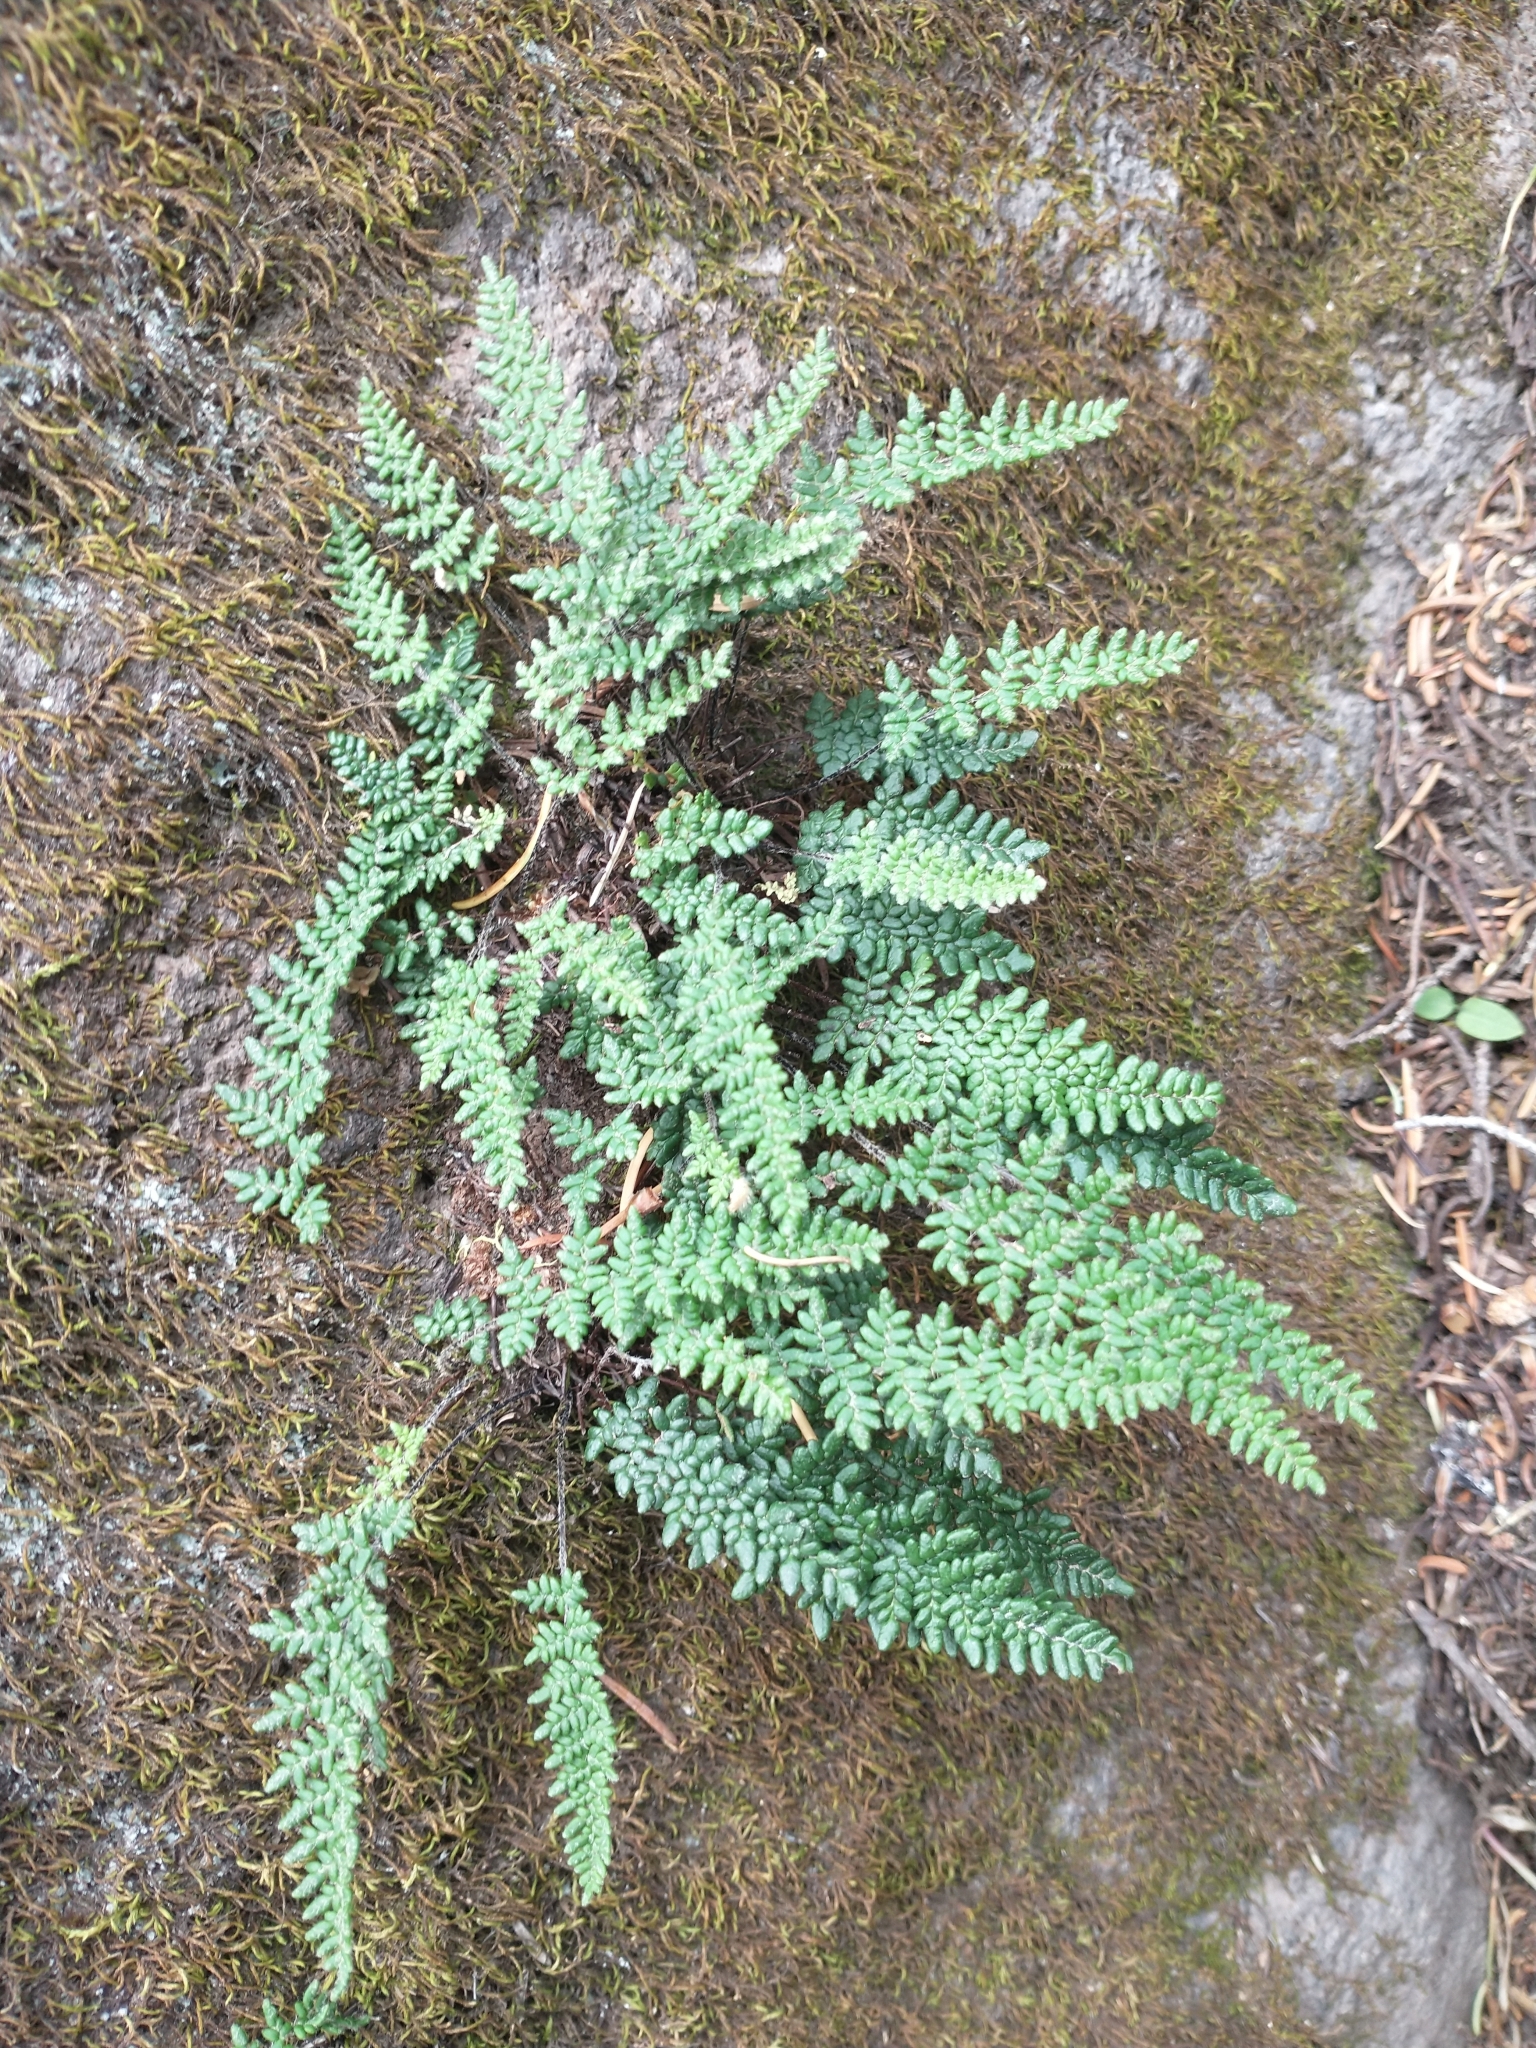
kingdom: Plantae
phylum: Tracheophyta
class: Polypodiopsida
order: Polypodiales
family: Pteridaceae
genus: Myriopteris
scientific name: Myriopteris gracillima
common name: Lace fern
